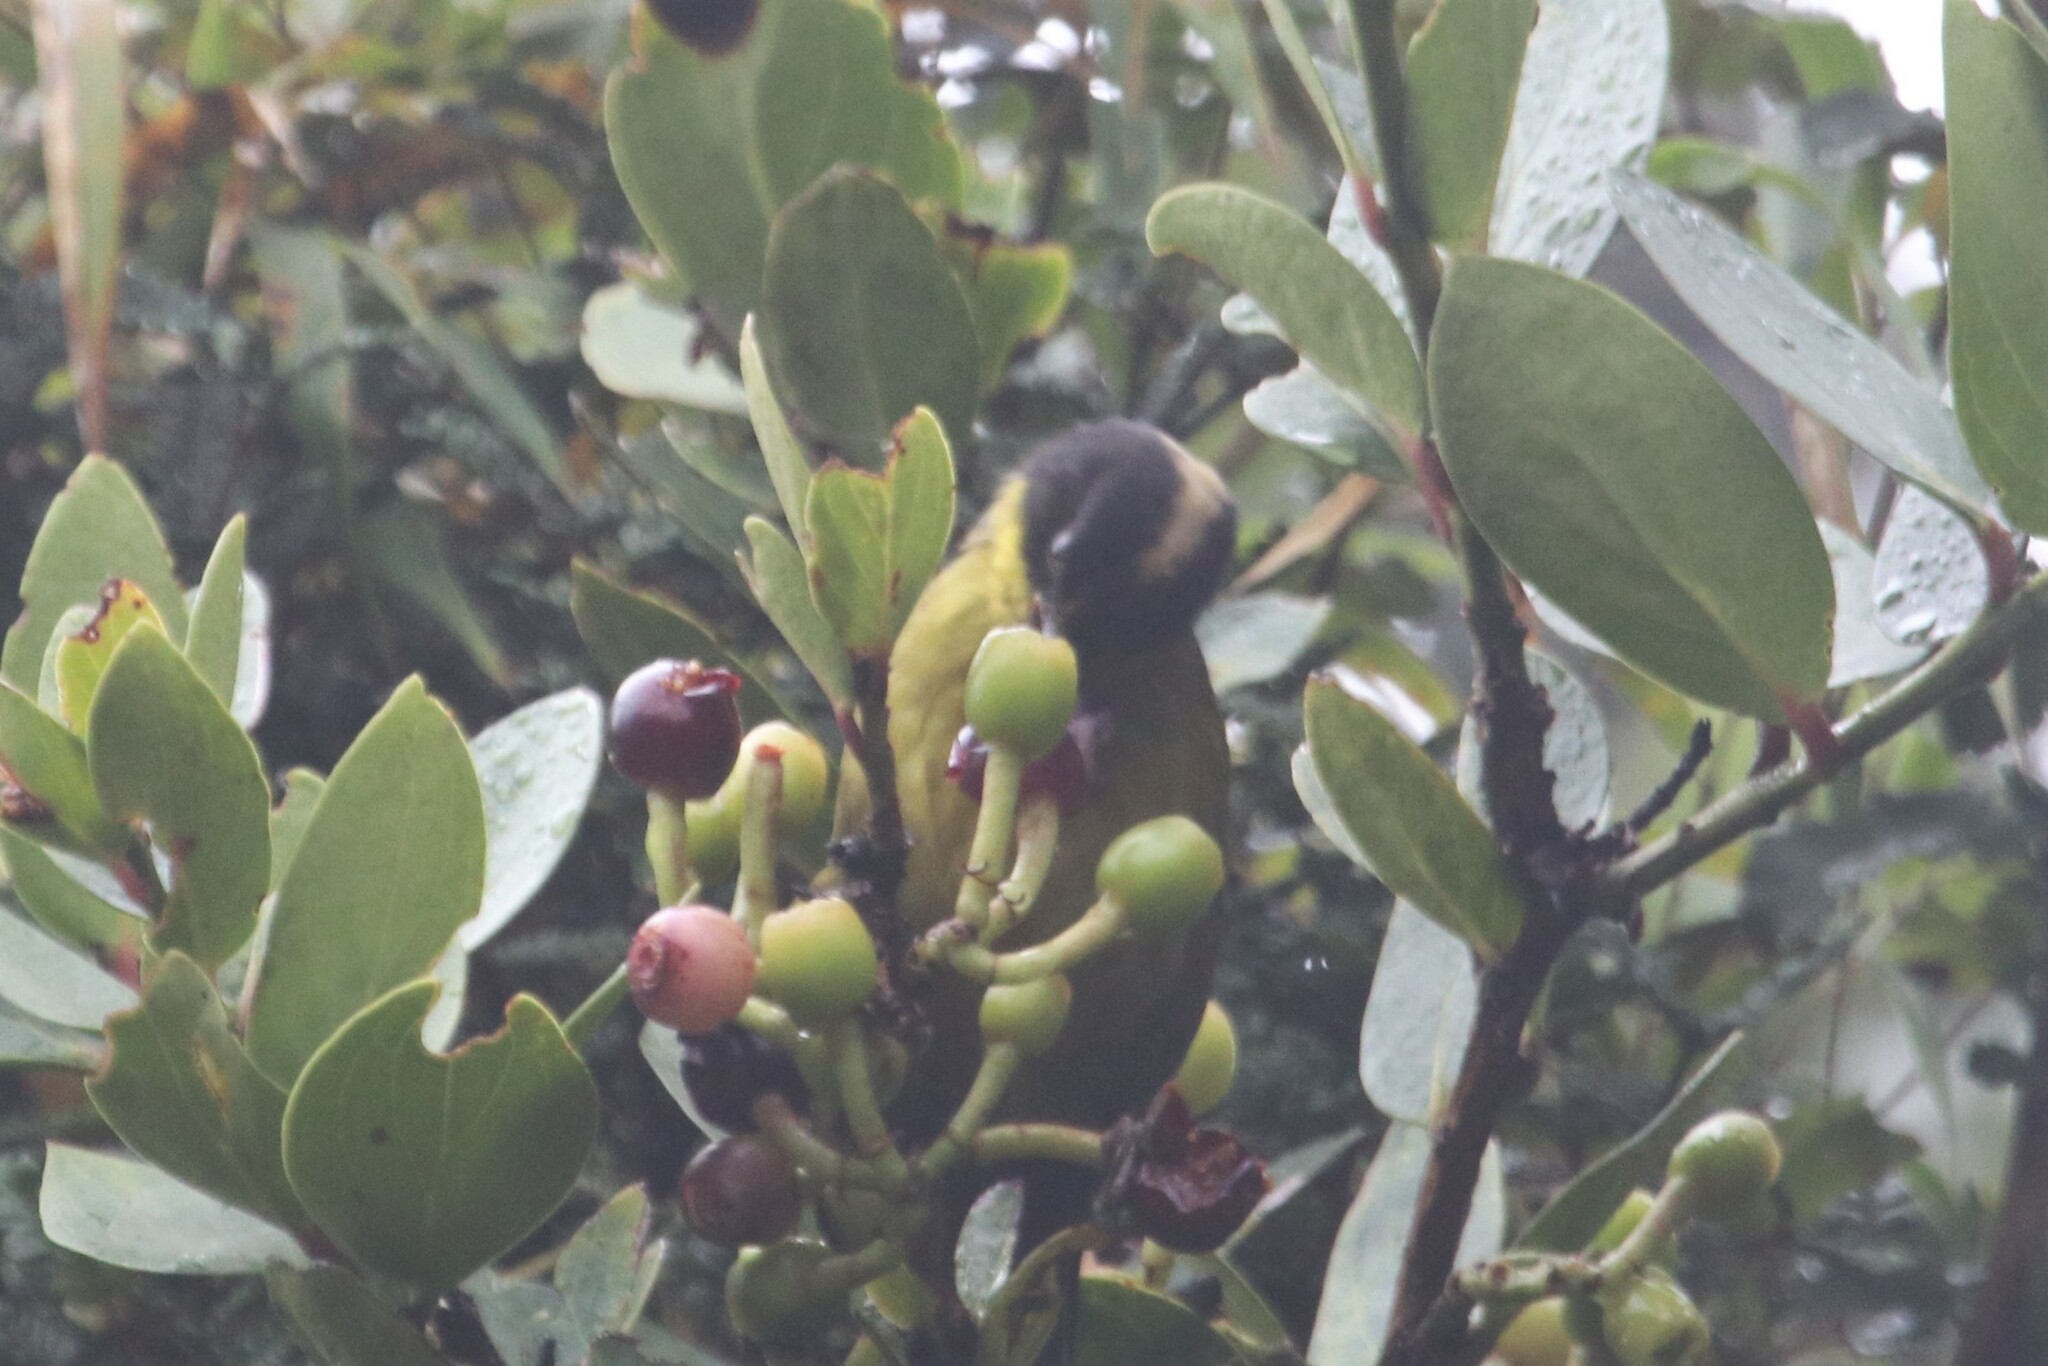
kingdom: Animalia
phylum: Chordata
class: Aves
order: Passeriformes
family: Passerellidae
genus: Atlapetes
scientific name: Atlapetes pallidinucha
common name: Pale-naped brushfinch
